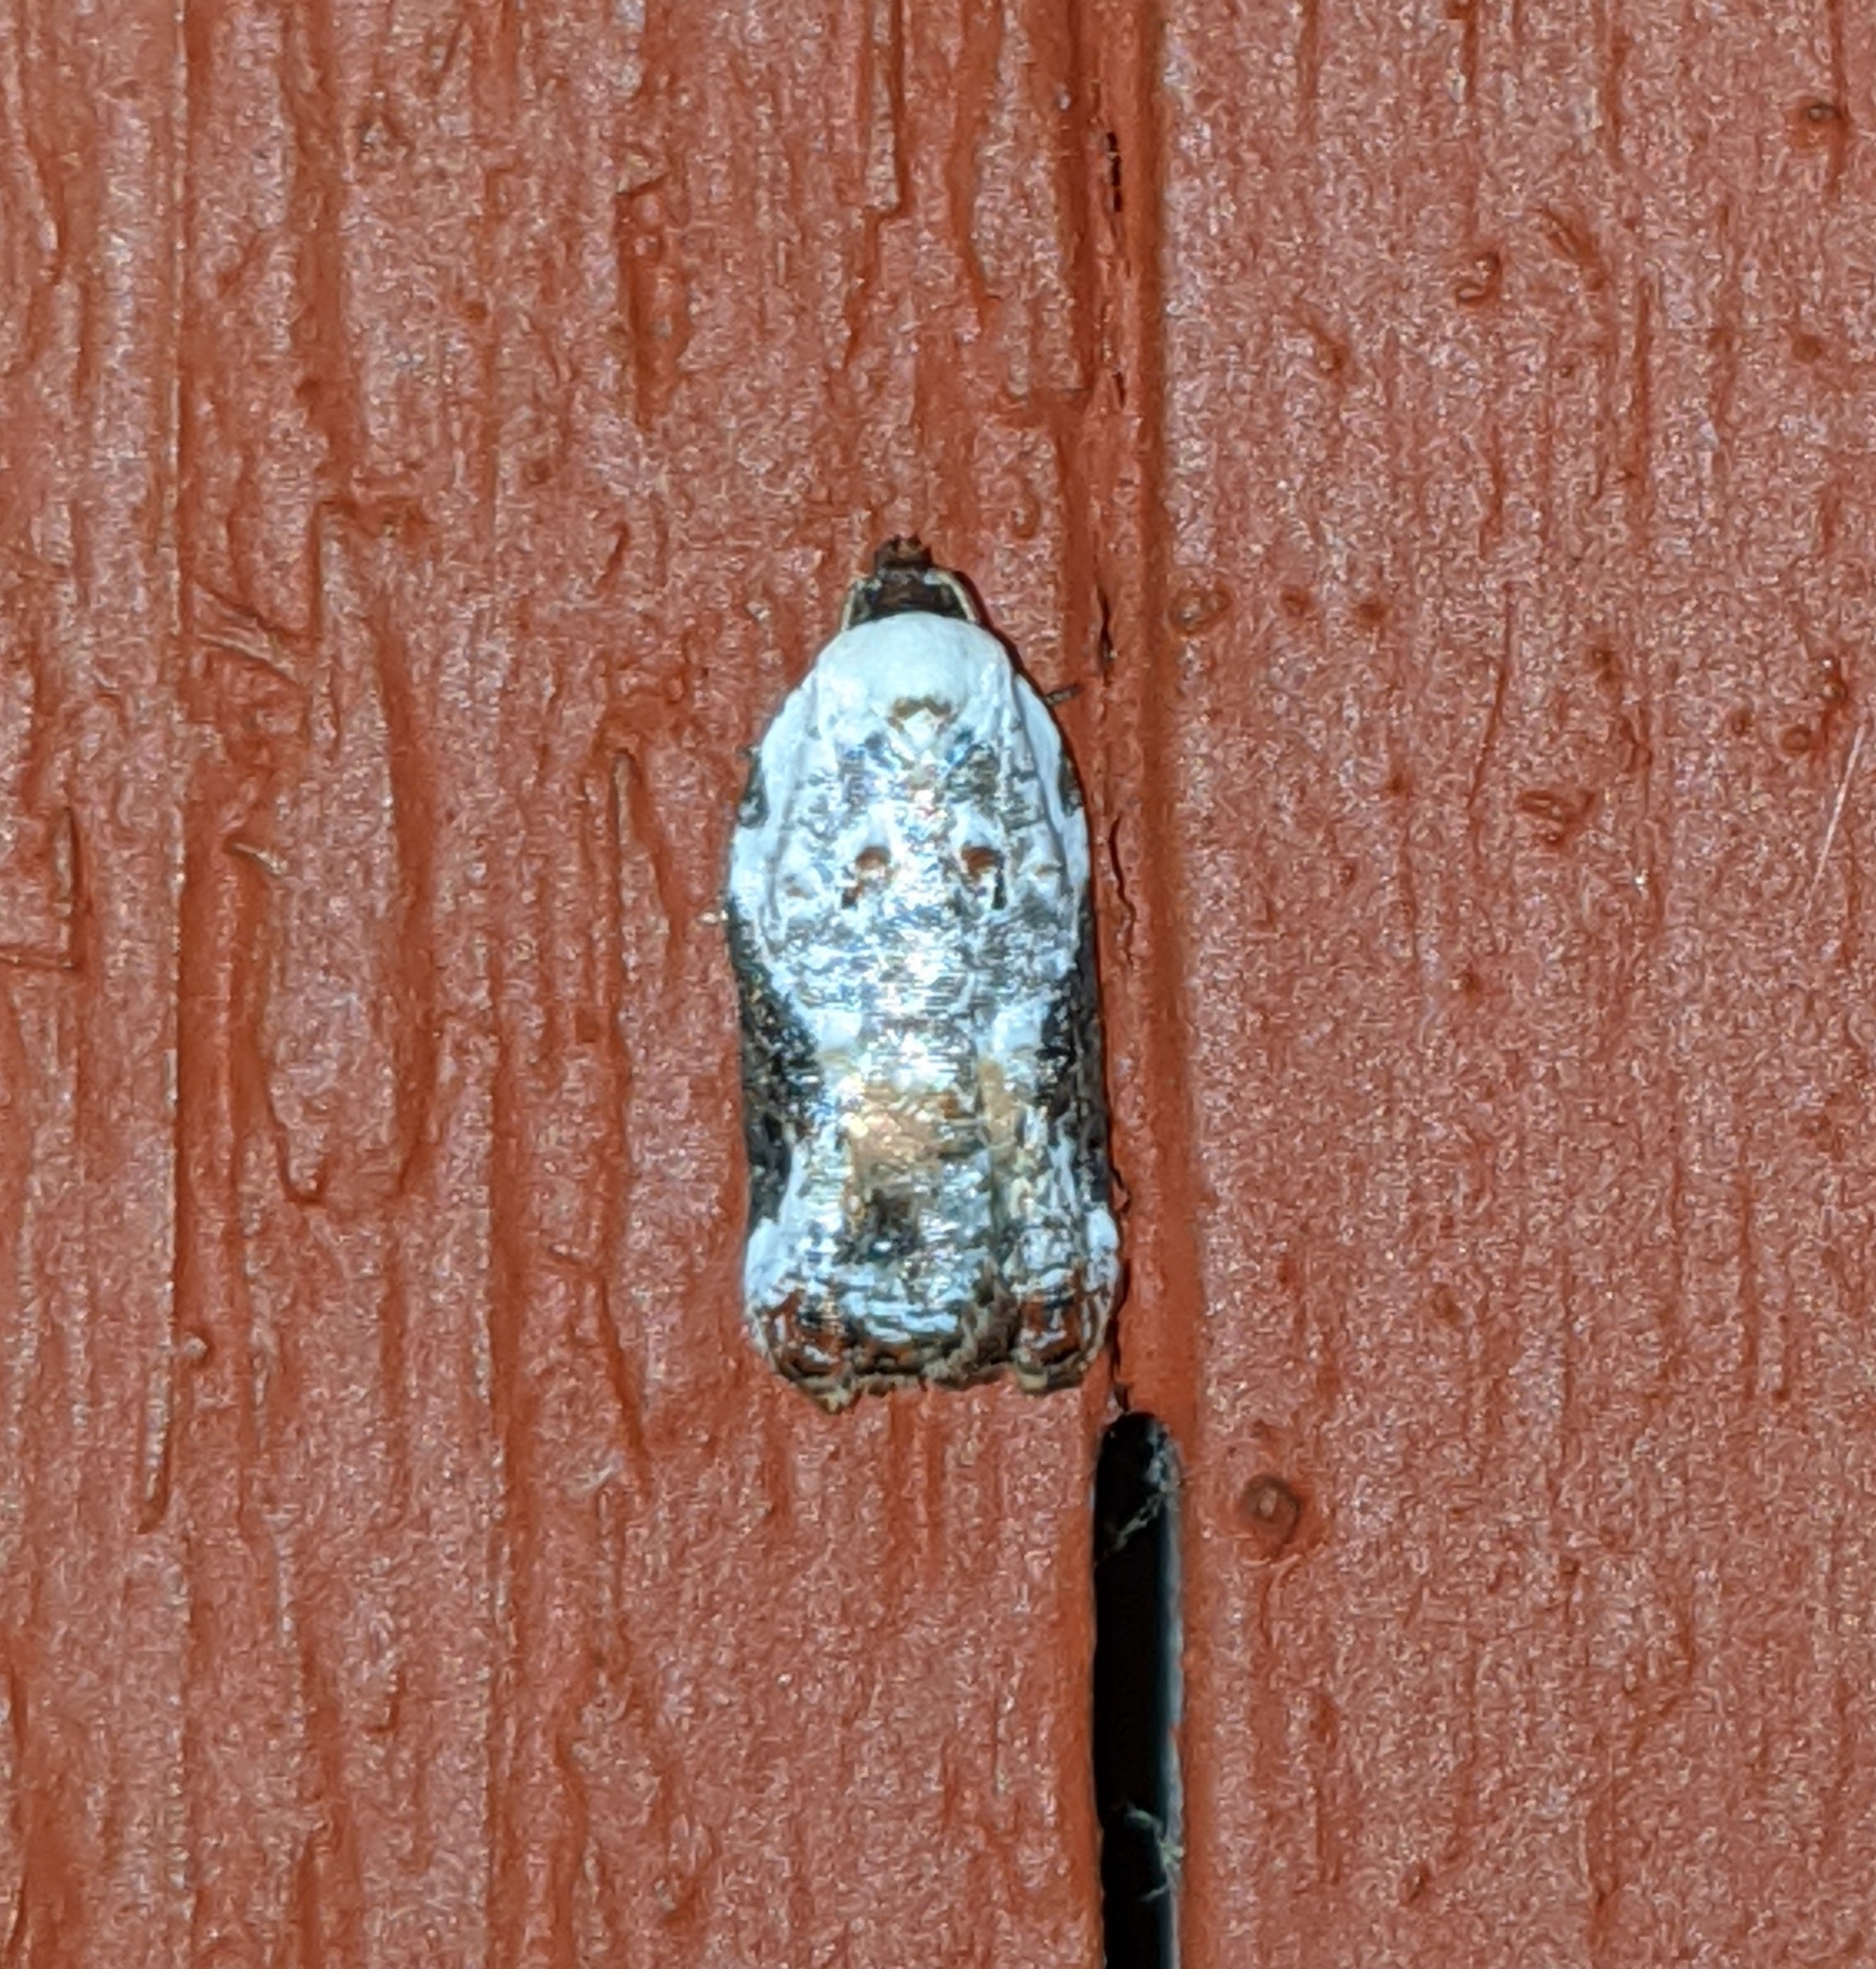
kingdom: Animalia
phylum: Arthropoda
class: Insecta
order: Lepidoptera
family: Tortricidae
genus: Acleris
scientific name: Acleris nivisellana
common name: Snowy-shouldered acleris moth
